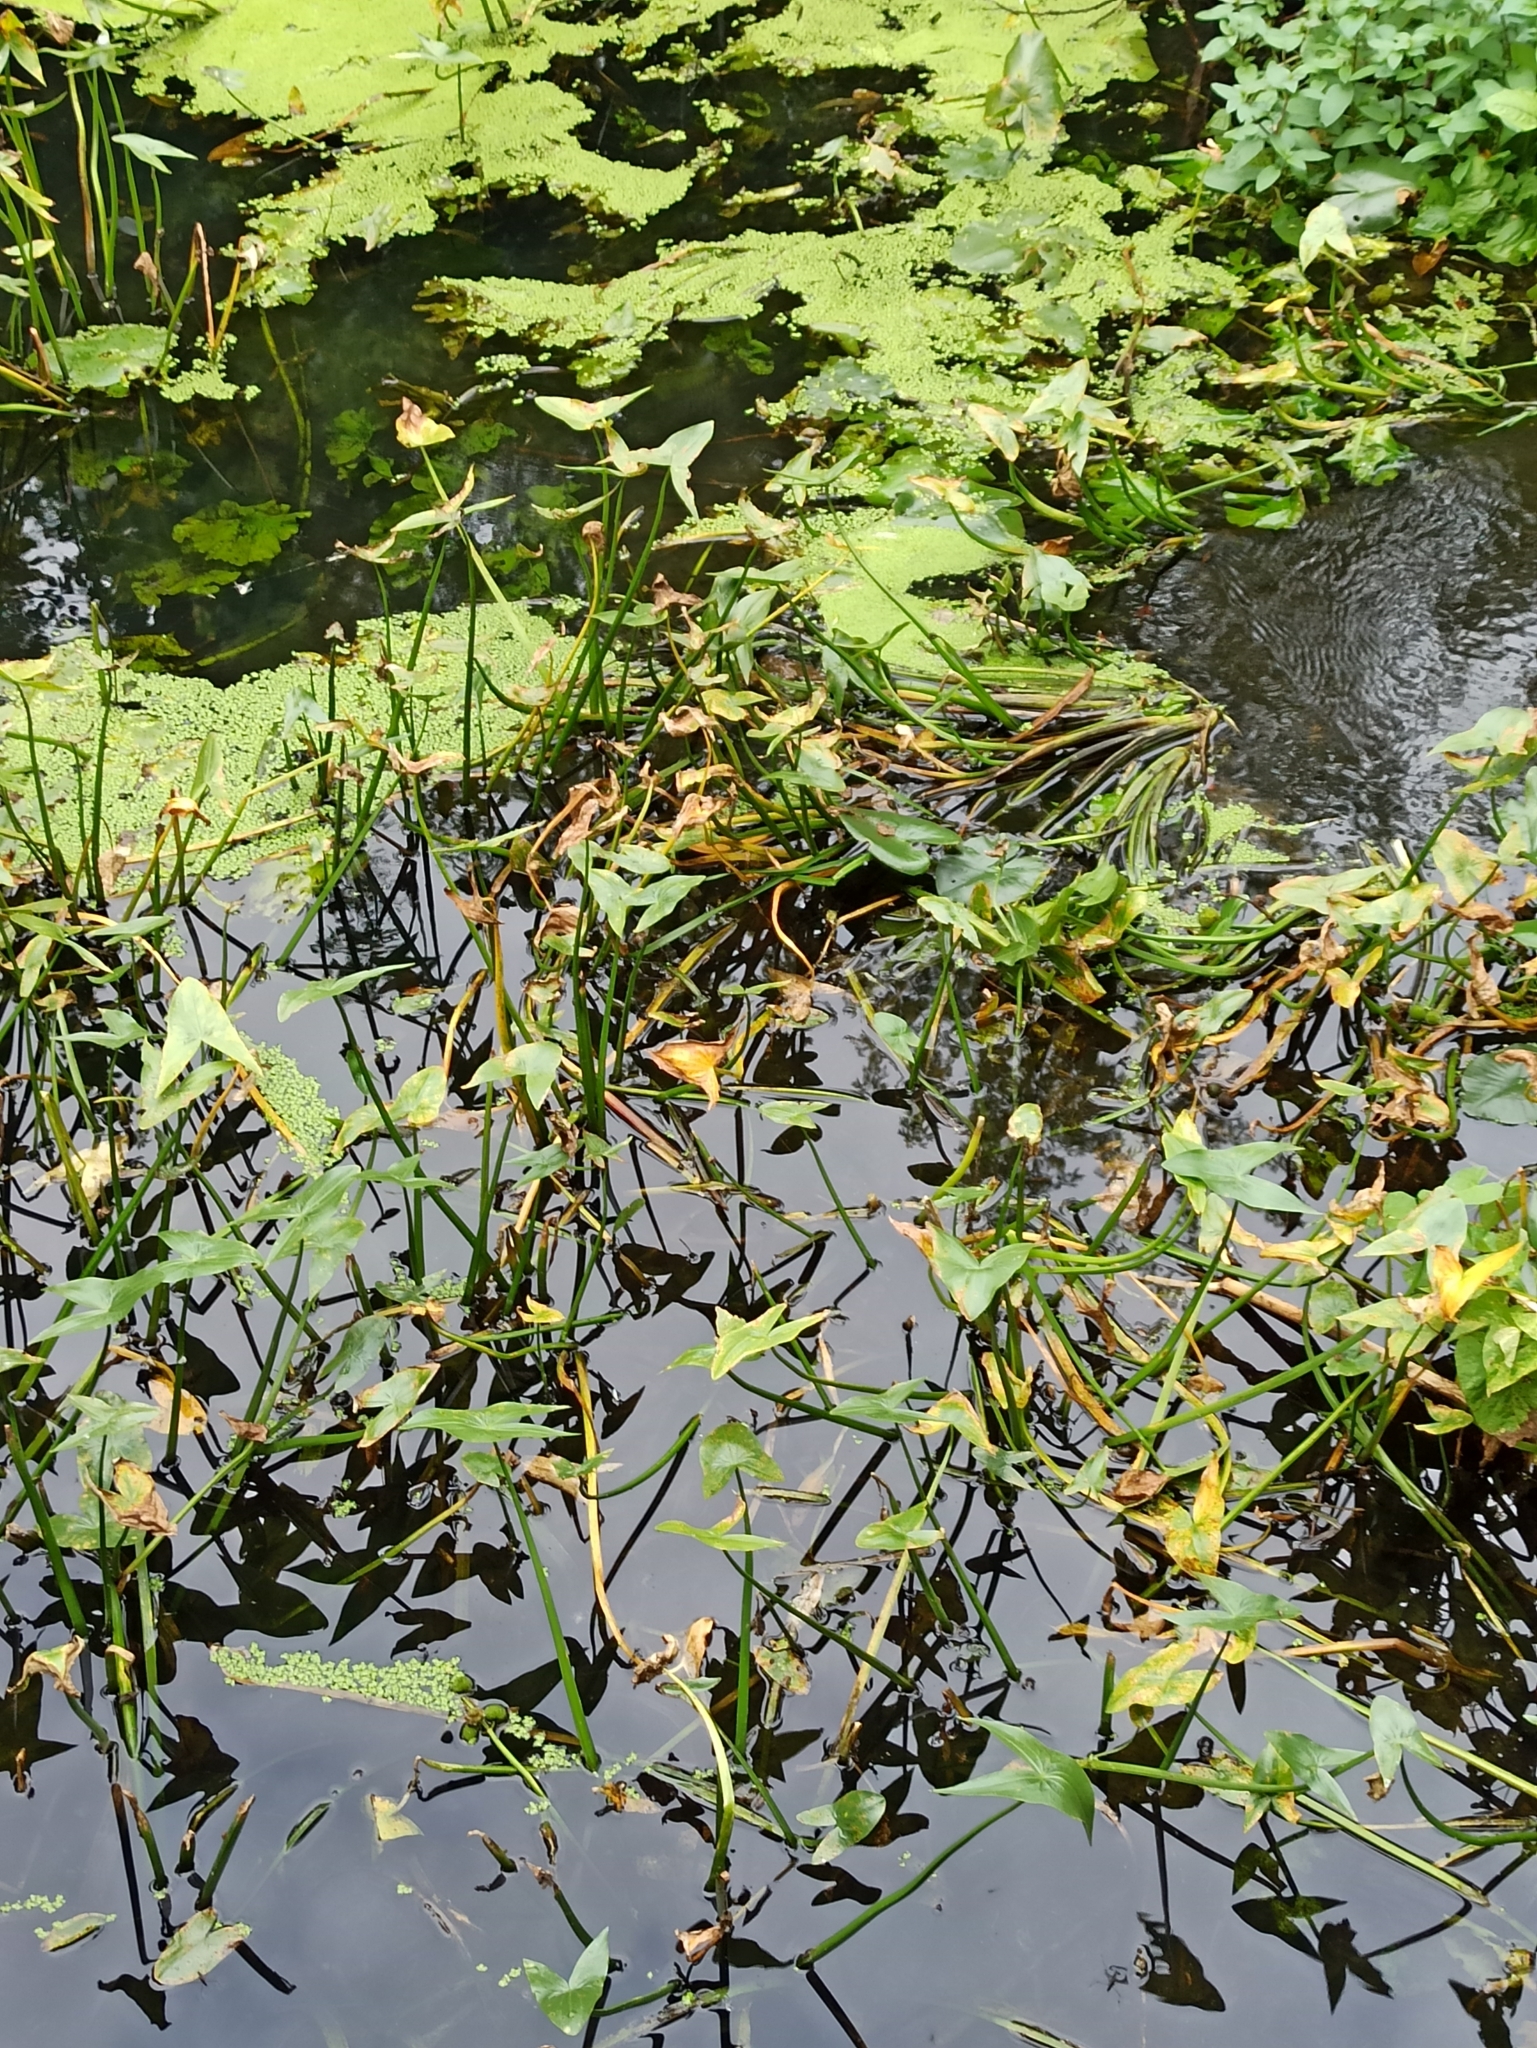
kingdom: Plantae
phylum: Tracheophyta
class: Liliopsida
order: Alismatales
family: Alismataceae
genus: Sagittaria
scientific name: Sagittaria sagittifolia
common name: Arrowhead
